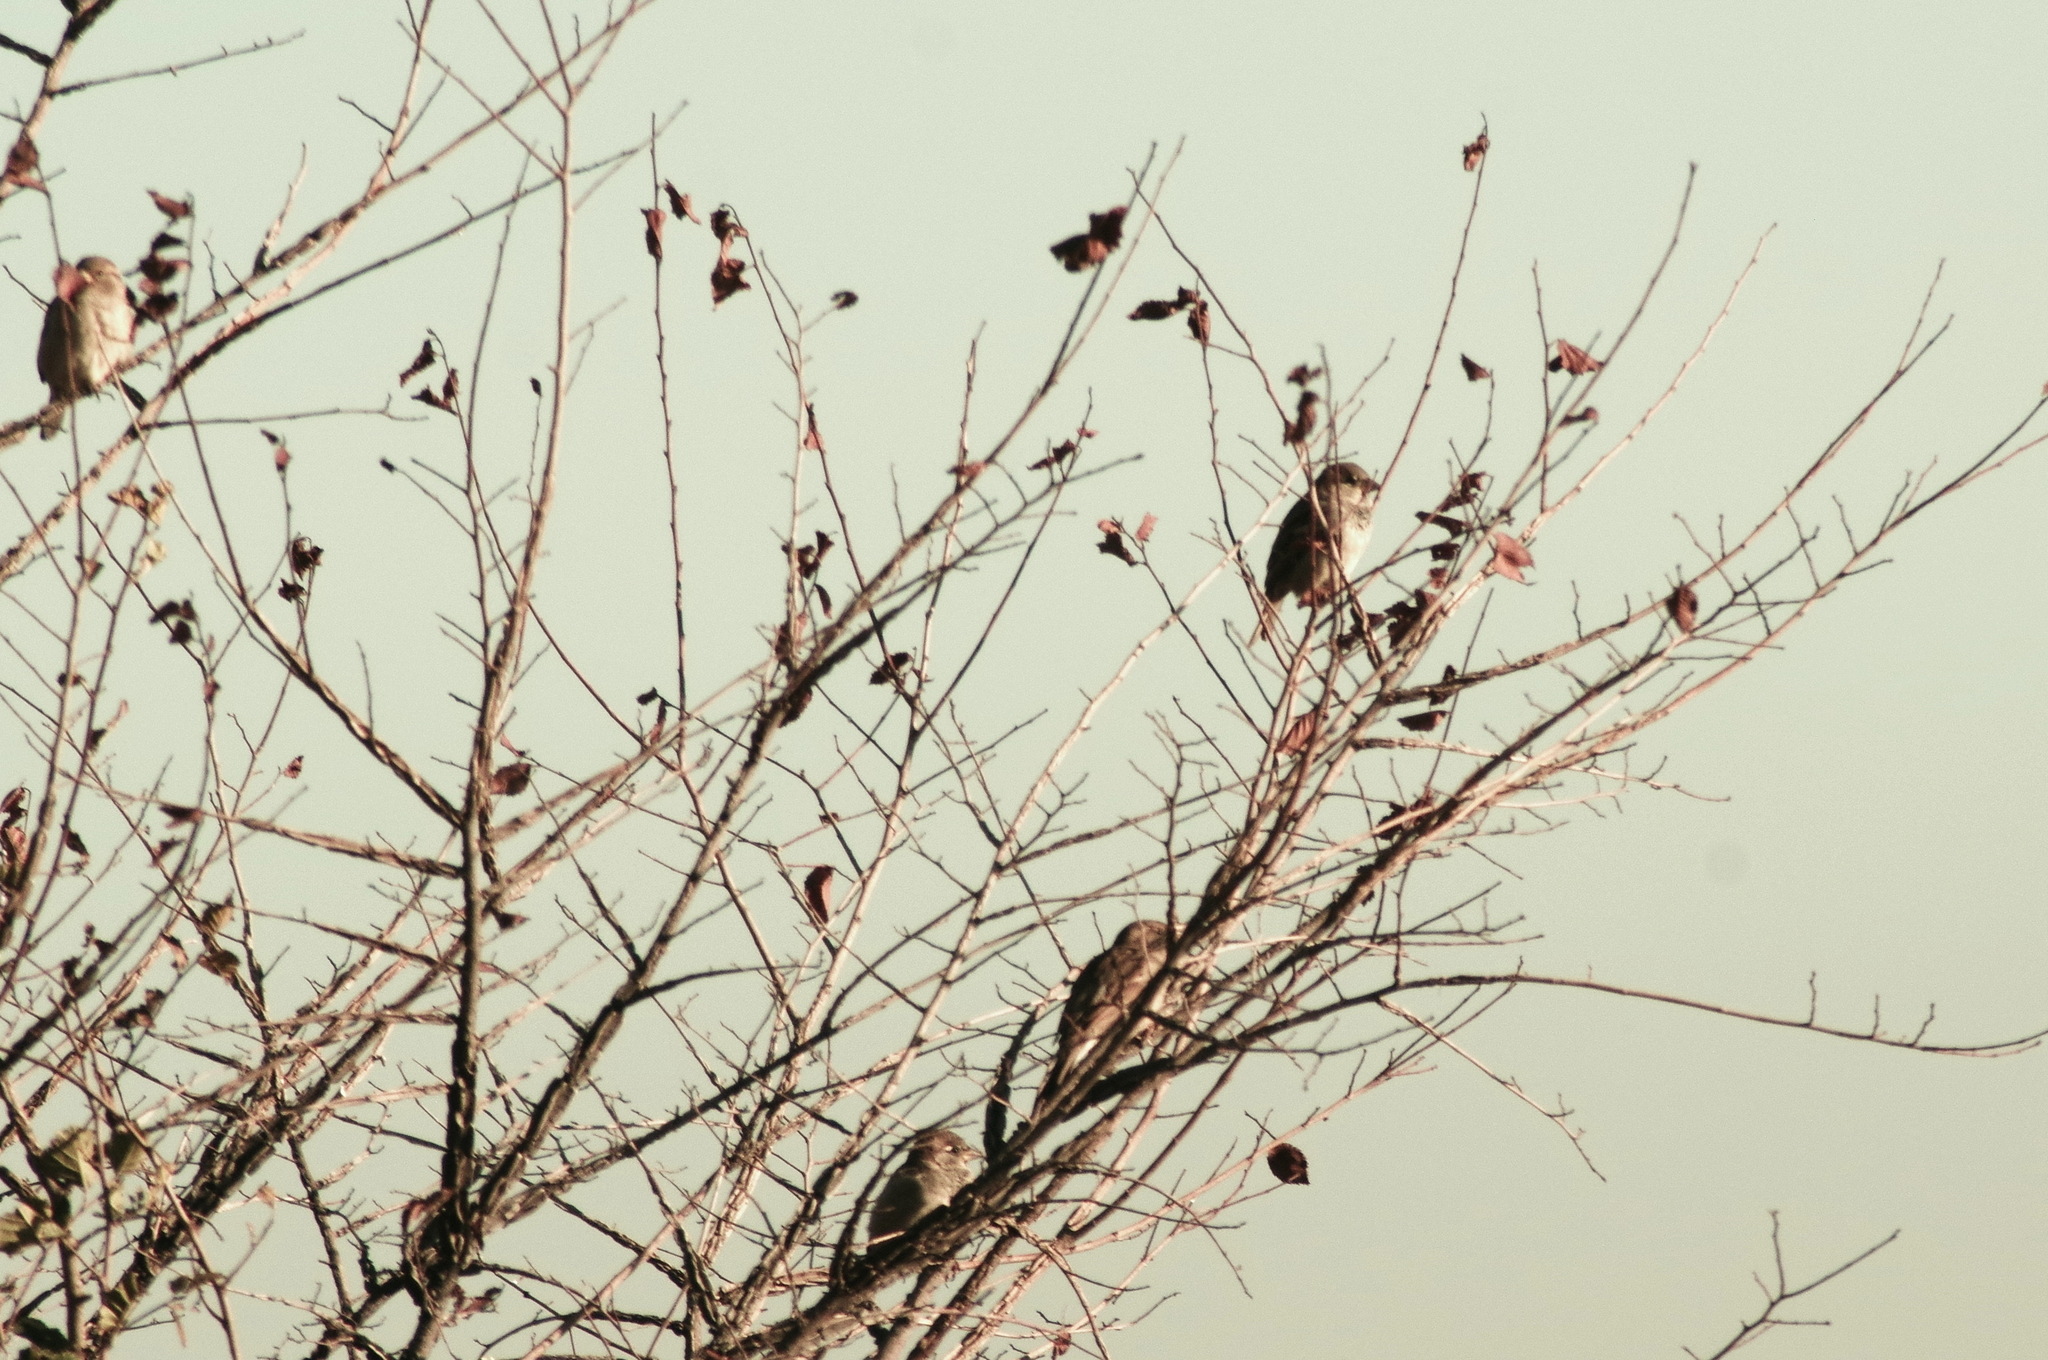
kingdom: Animalia
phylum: Chordata
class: Aves
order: Passeriformes
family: Passeridae
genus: Passer
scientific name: Passer domesticus
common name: House sparrow
